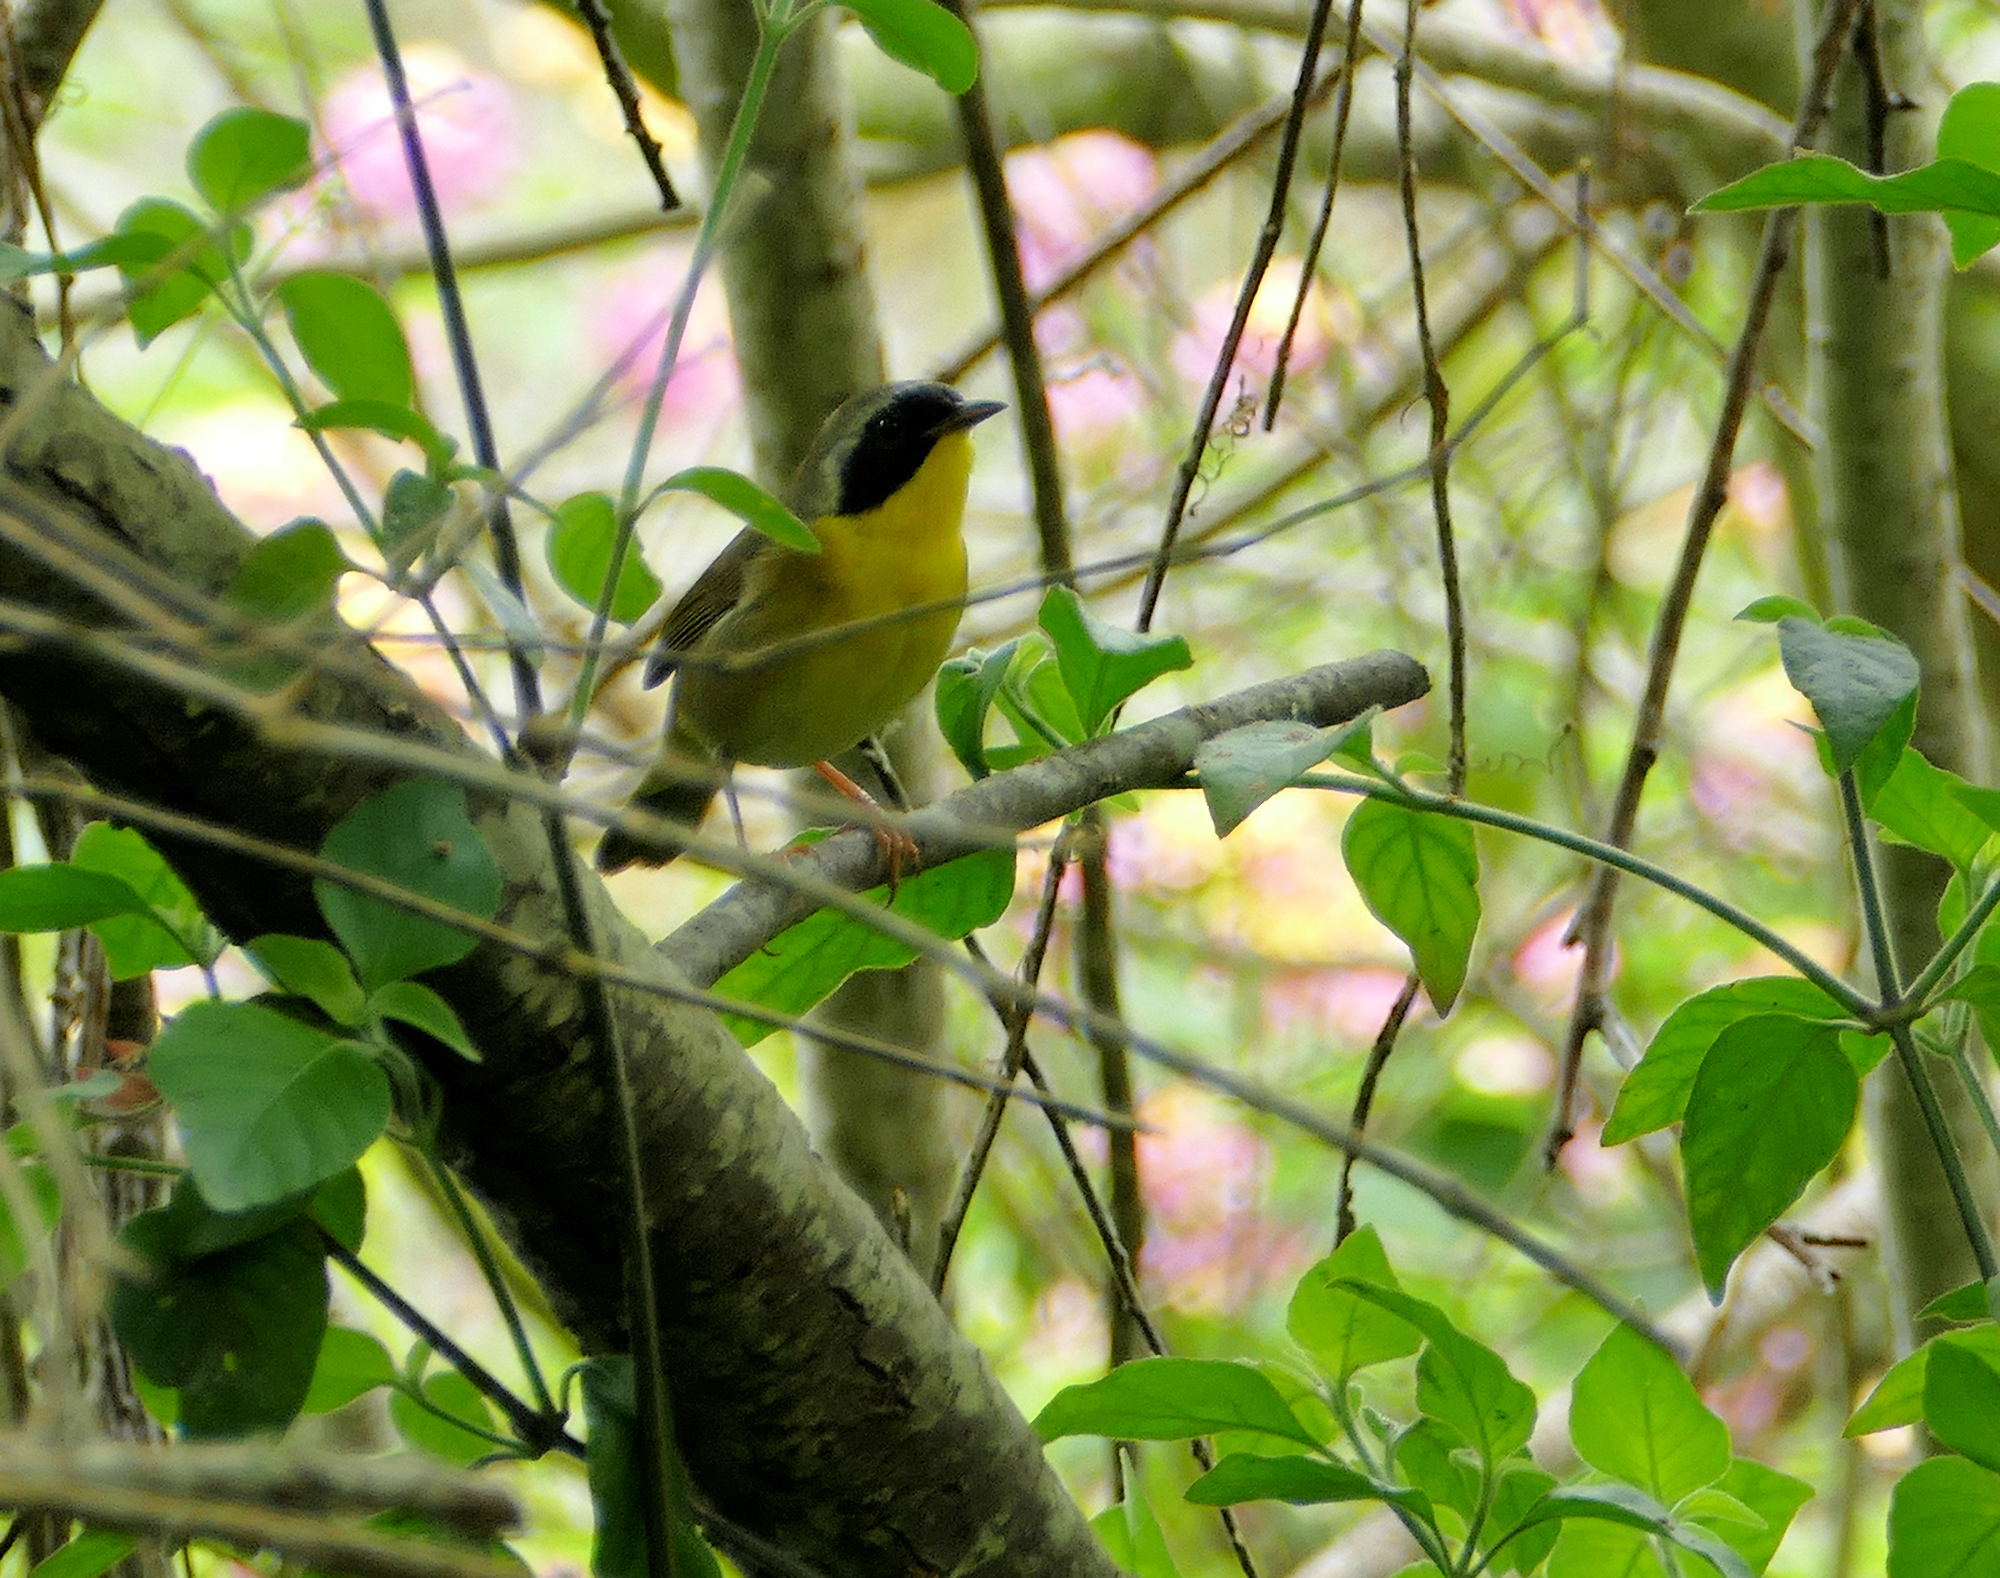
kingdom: Animalia
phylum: Chordata
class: Aves
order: Passeriformes
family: Parulidae
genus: Geothlypis
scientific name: Geothlypis trichas
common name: Common yellowthroat
